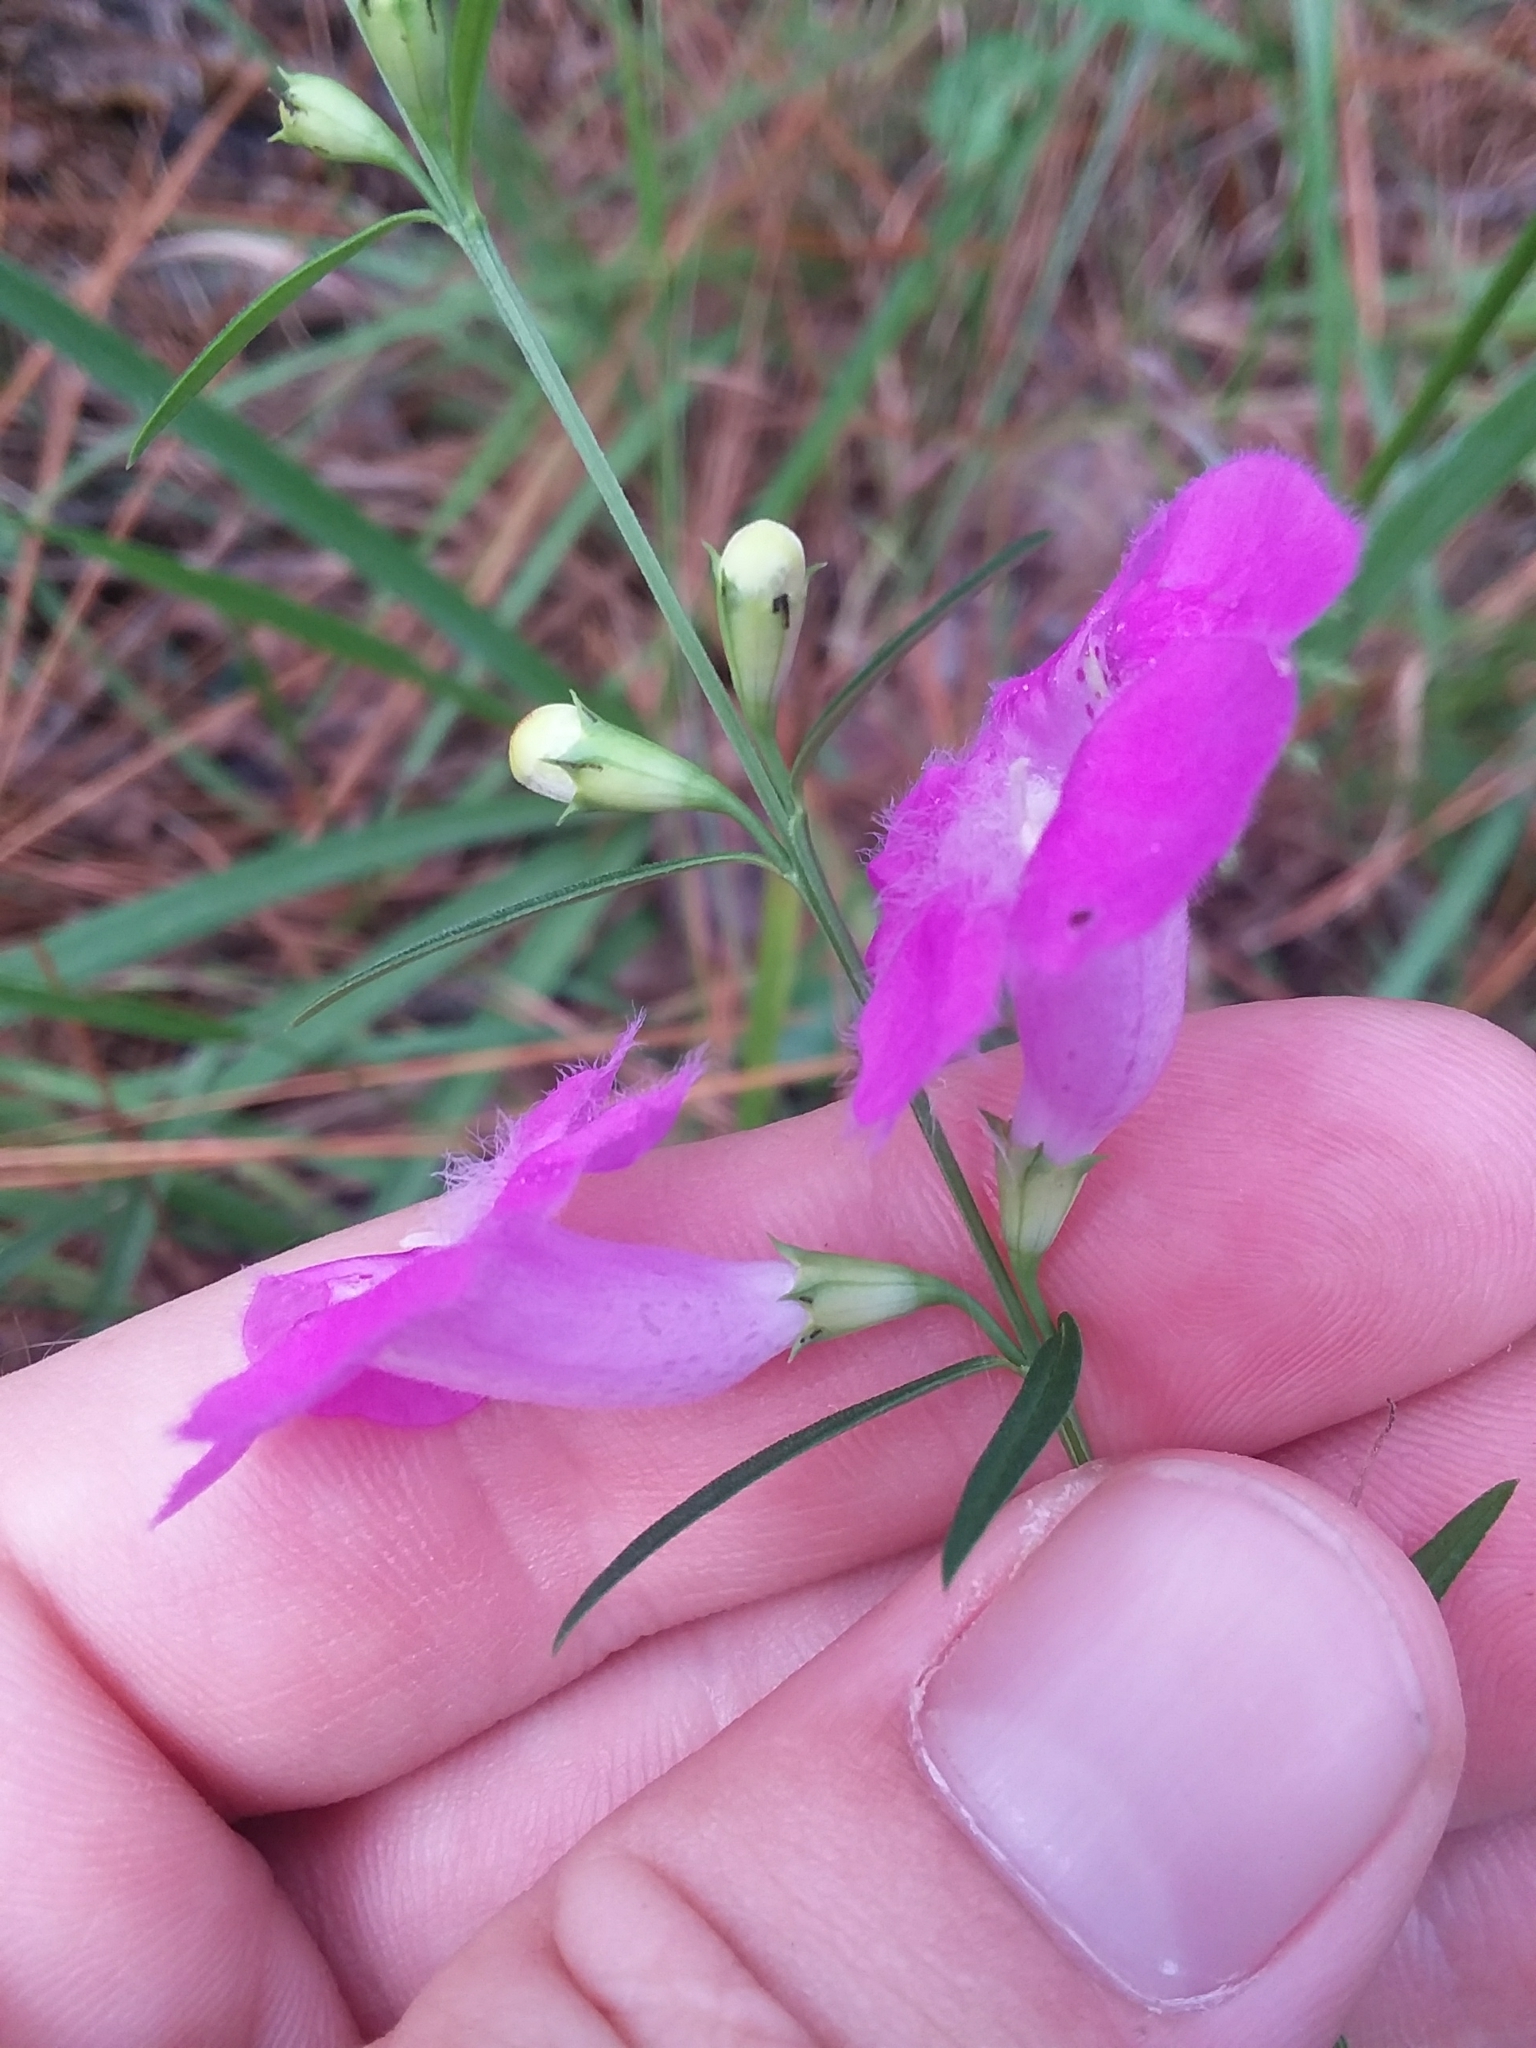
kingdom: Plantae
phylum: Tracheophyta
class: Magnoliopsida
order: Lamiales
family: Orobanchaceae
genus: Agalinis
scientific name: Agalinis purpurea
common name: Purple false foxglove
